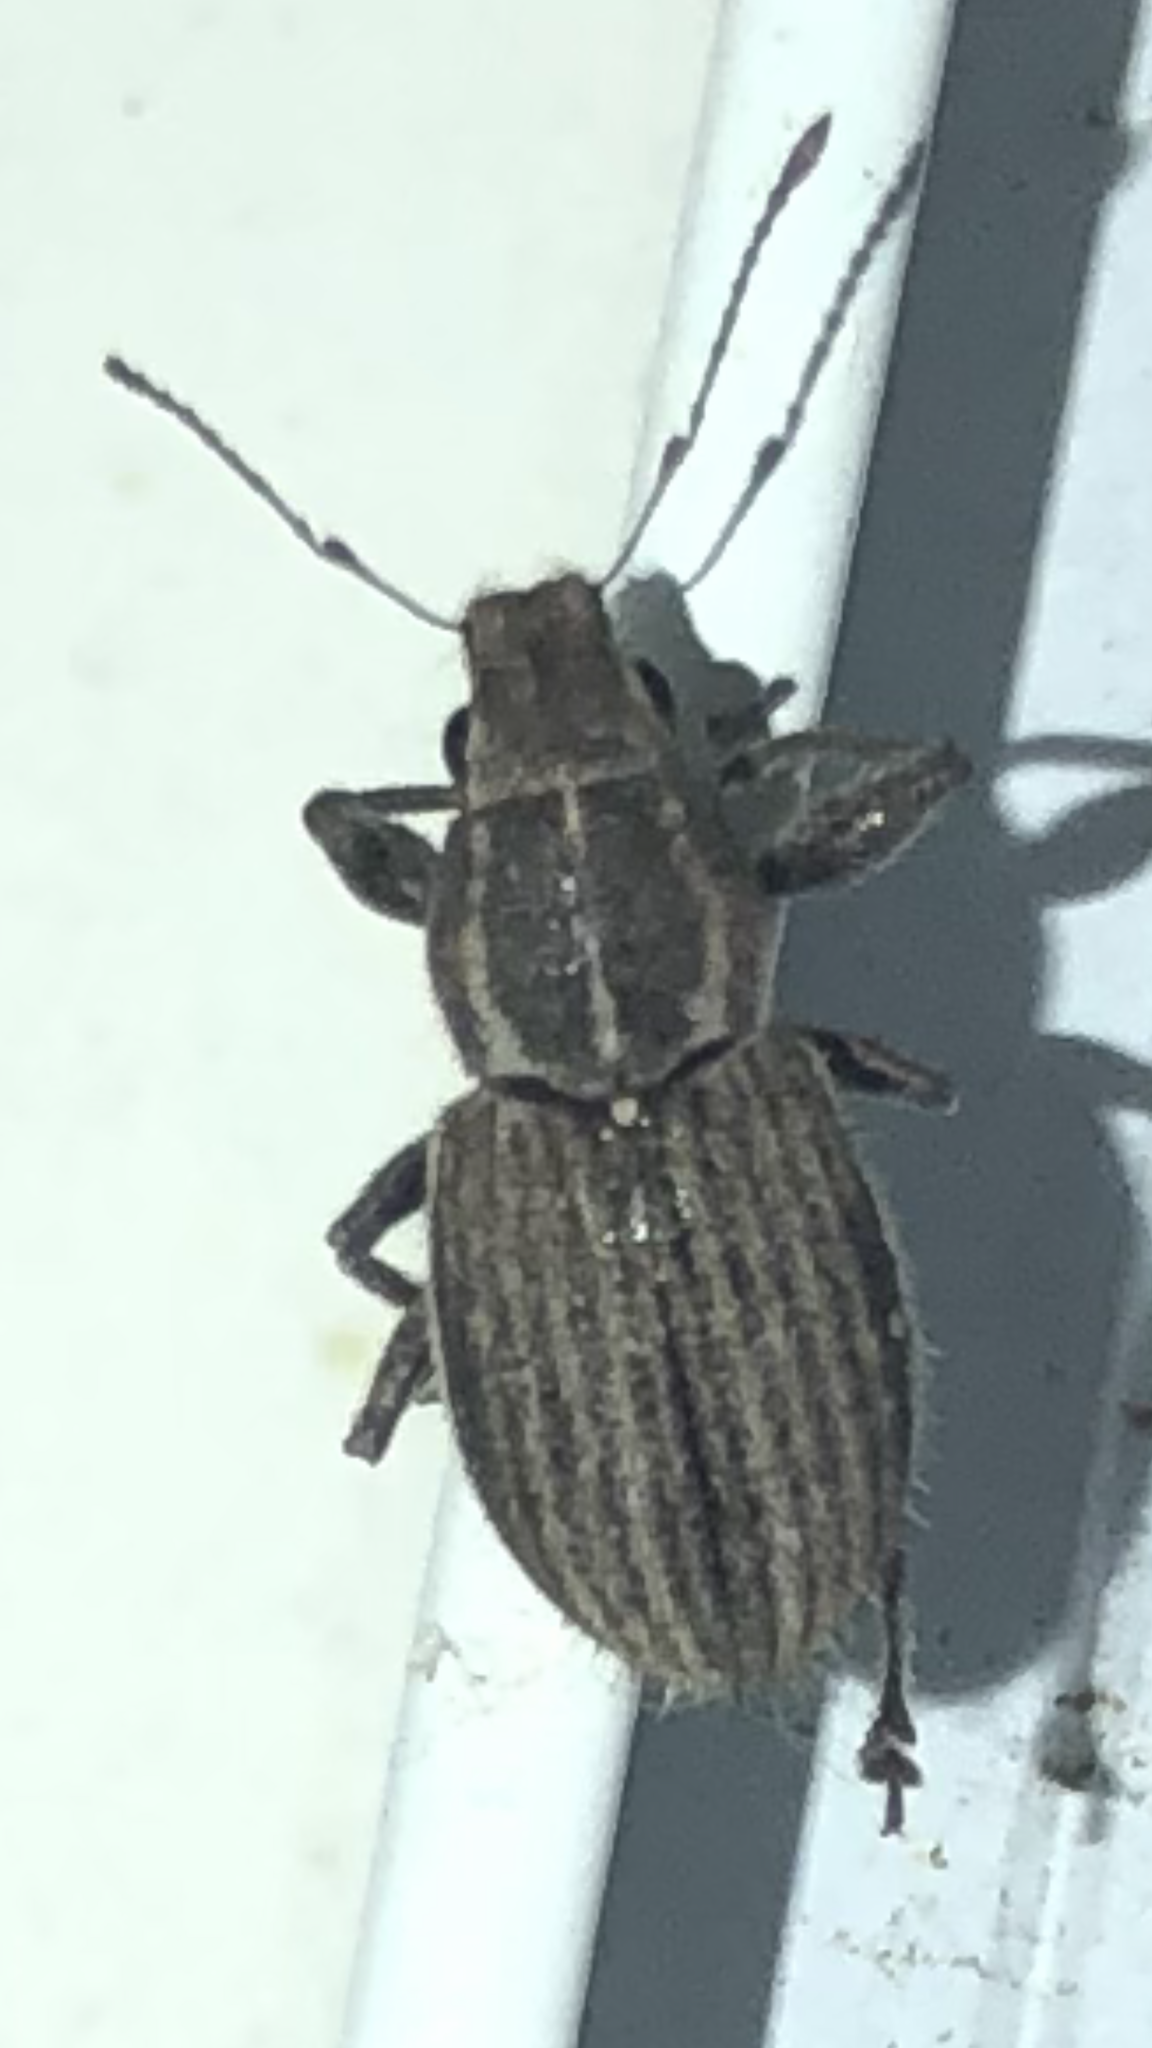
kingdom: Animalia
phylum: Arthropoda
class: Insecta
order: Coleoptera
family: Curculionidae
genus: Naupactus
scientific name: Naupactus leucoloma
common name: Whitefringed beetle
